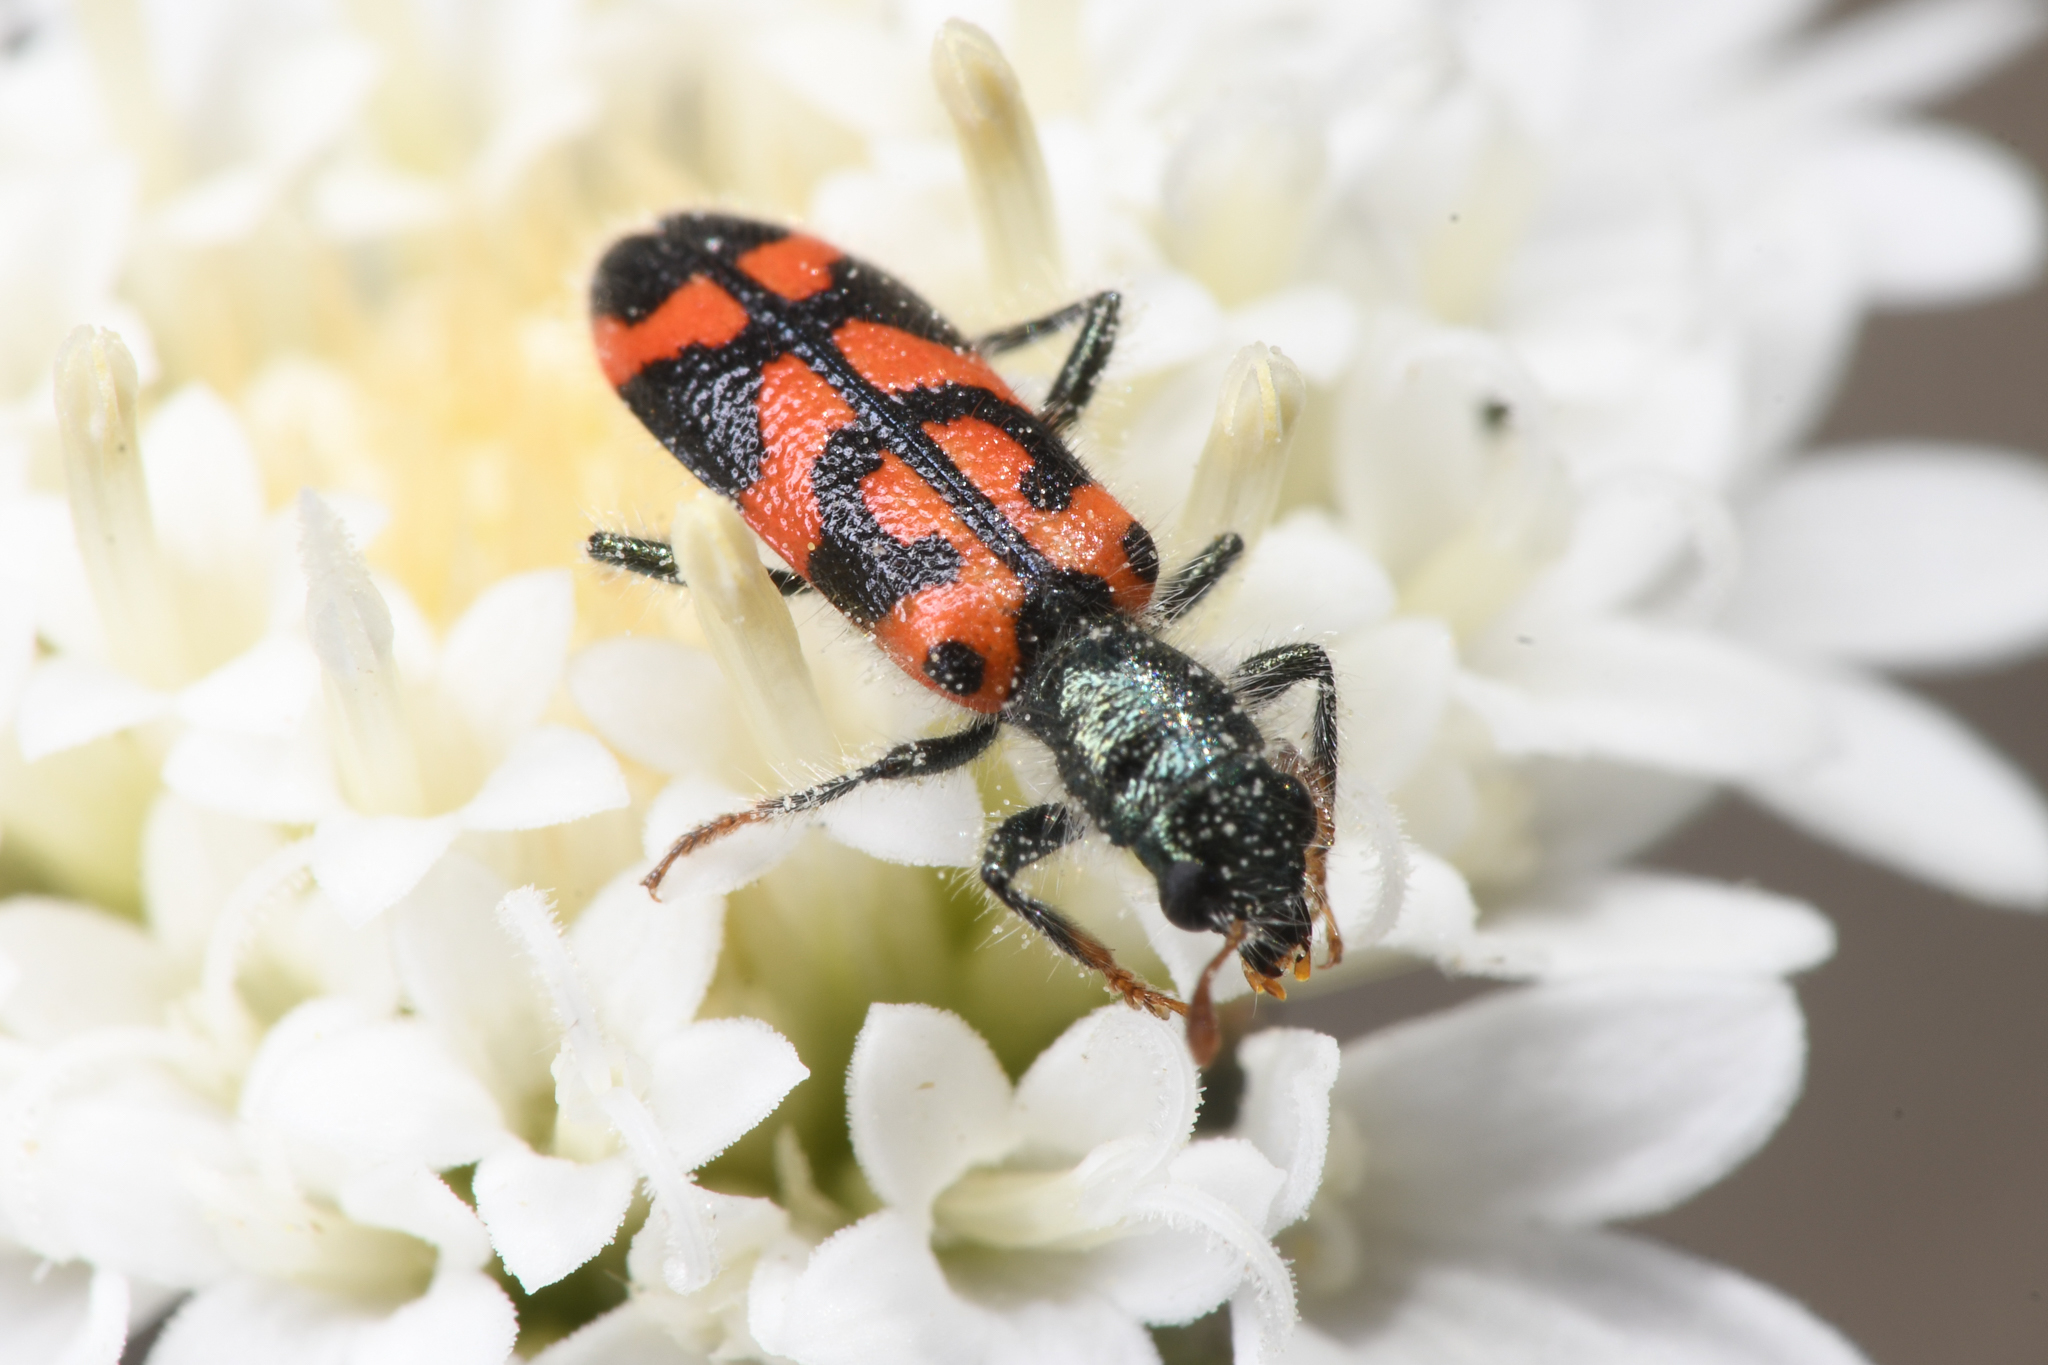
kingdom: Animalia
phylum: Arthropoda
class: Insecta
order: Coleoptera
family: Cleridae
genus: Trichodes
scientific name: Trichodes ornatus
